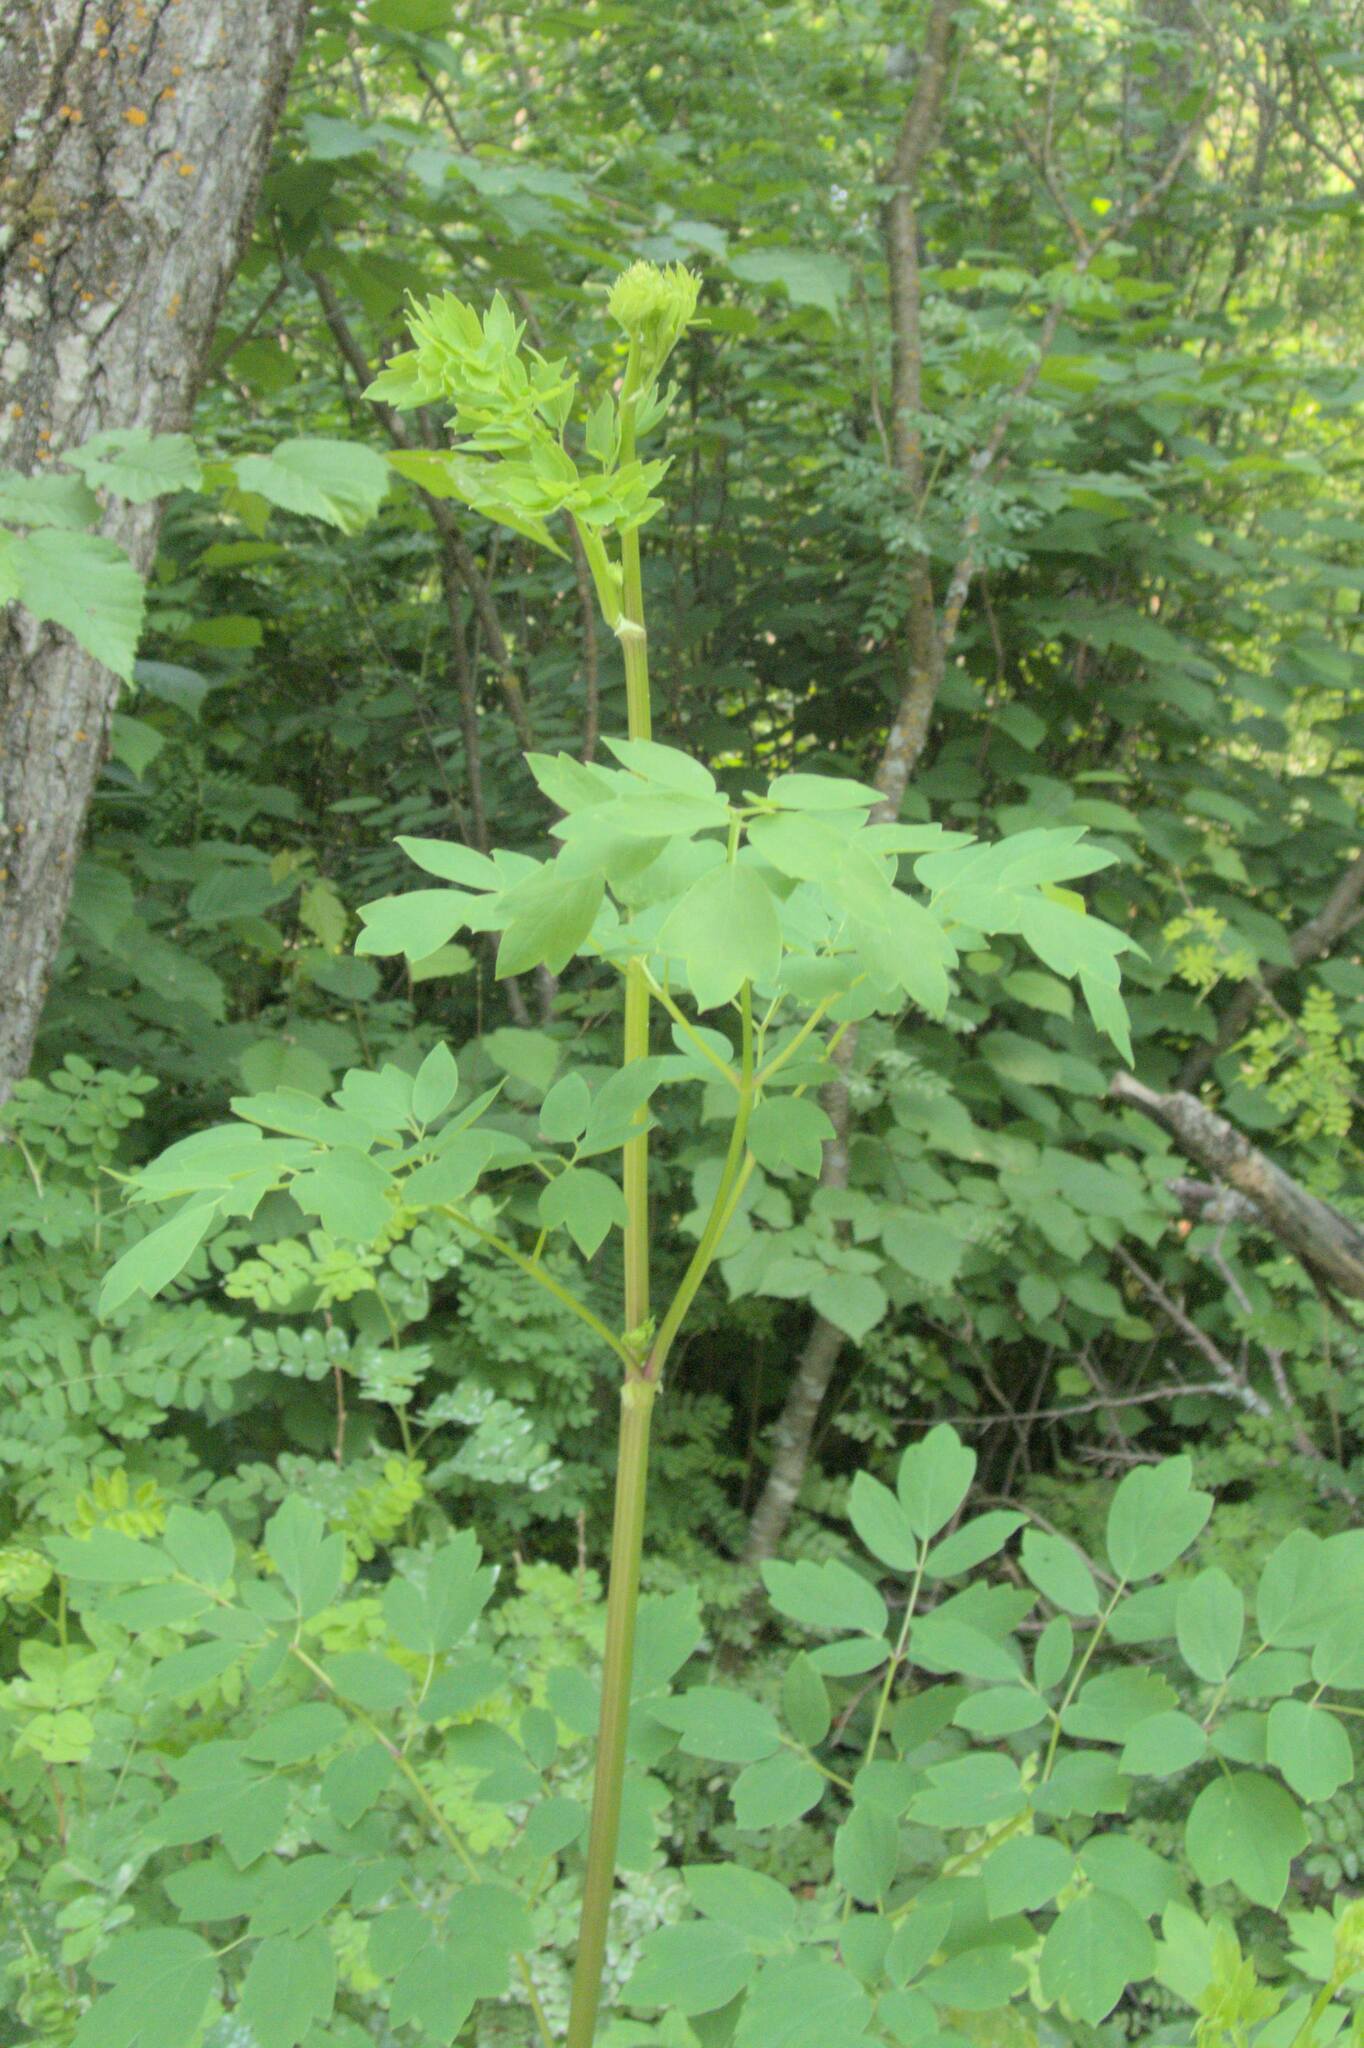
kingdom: Plantae
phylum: Tracheophyta
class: Magnoliopsida
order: Ranunculales
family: Ranunculaceae
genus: Thalictrum
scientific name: Thalictrum dasycarpum
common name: Purple meadow-rue
